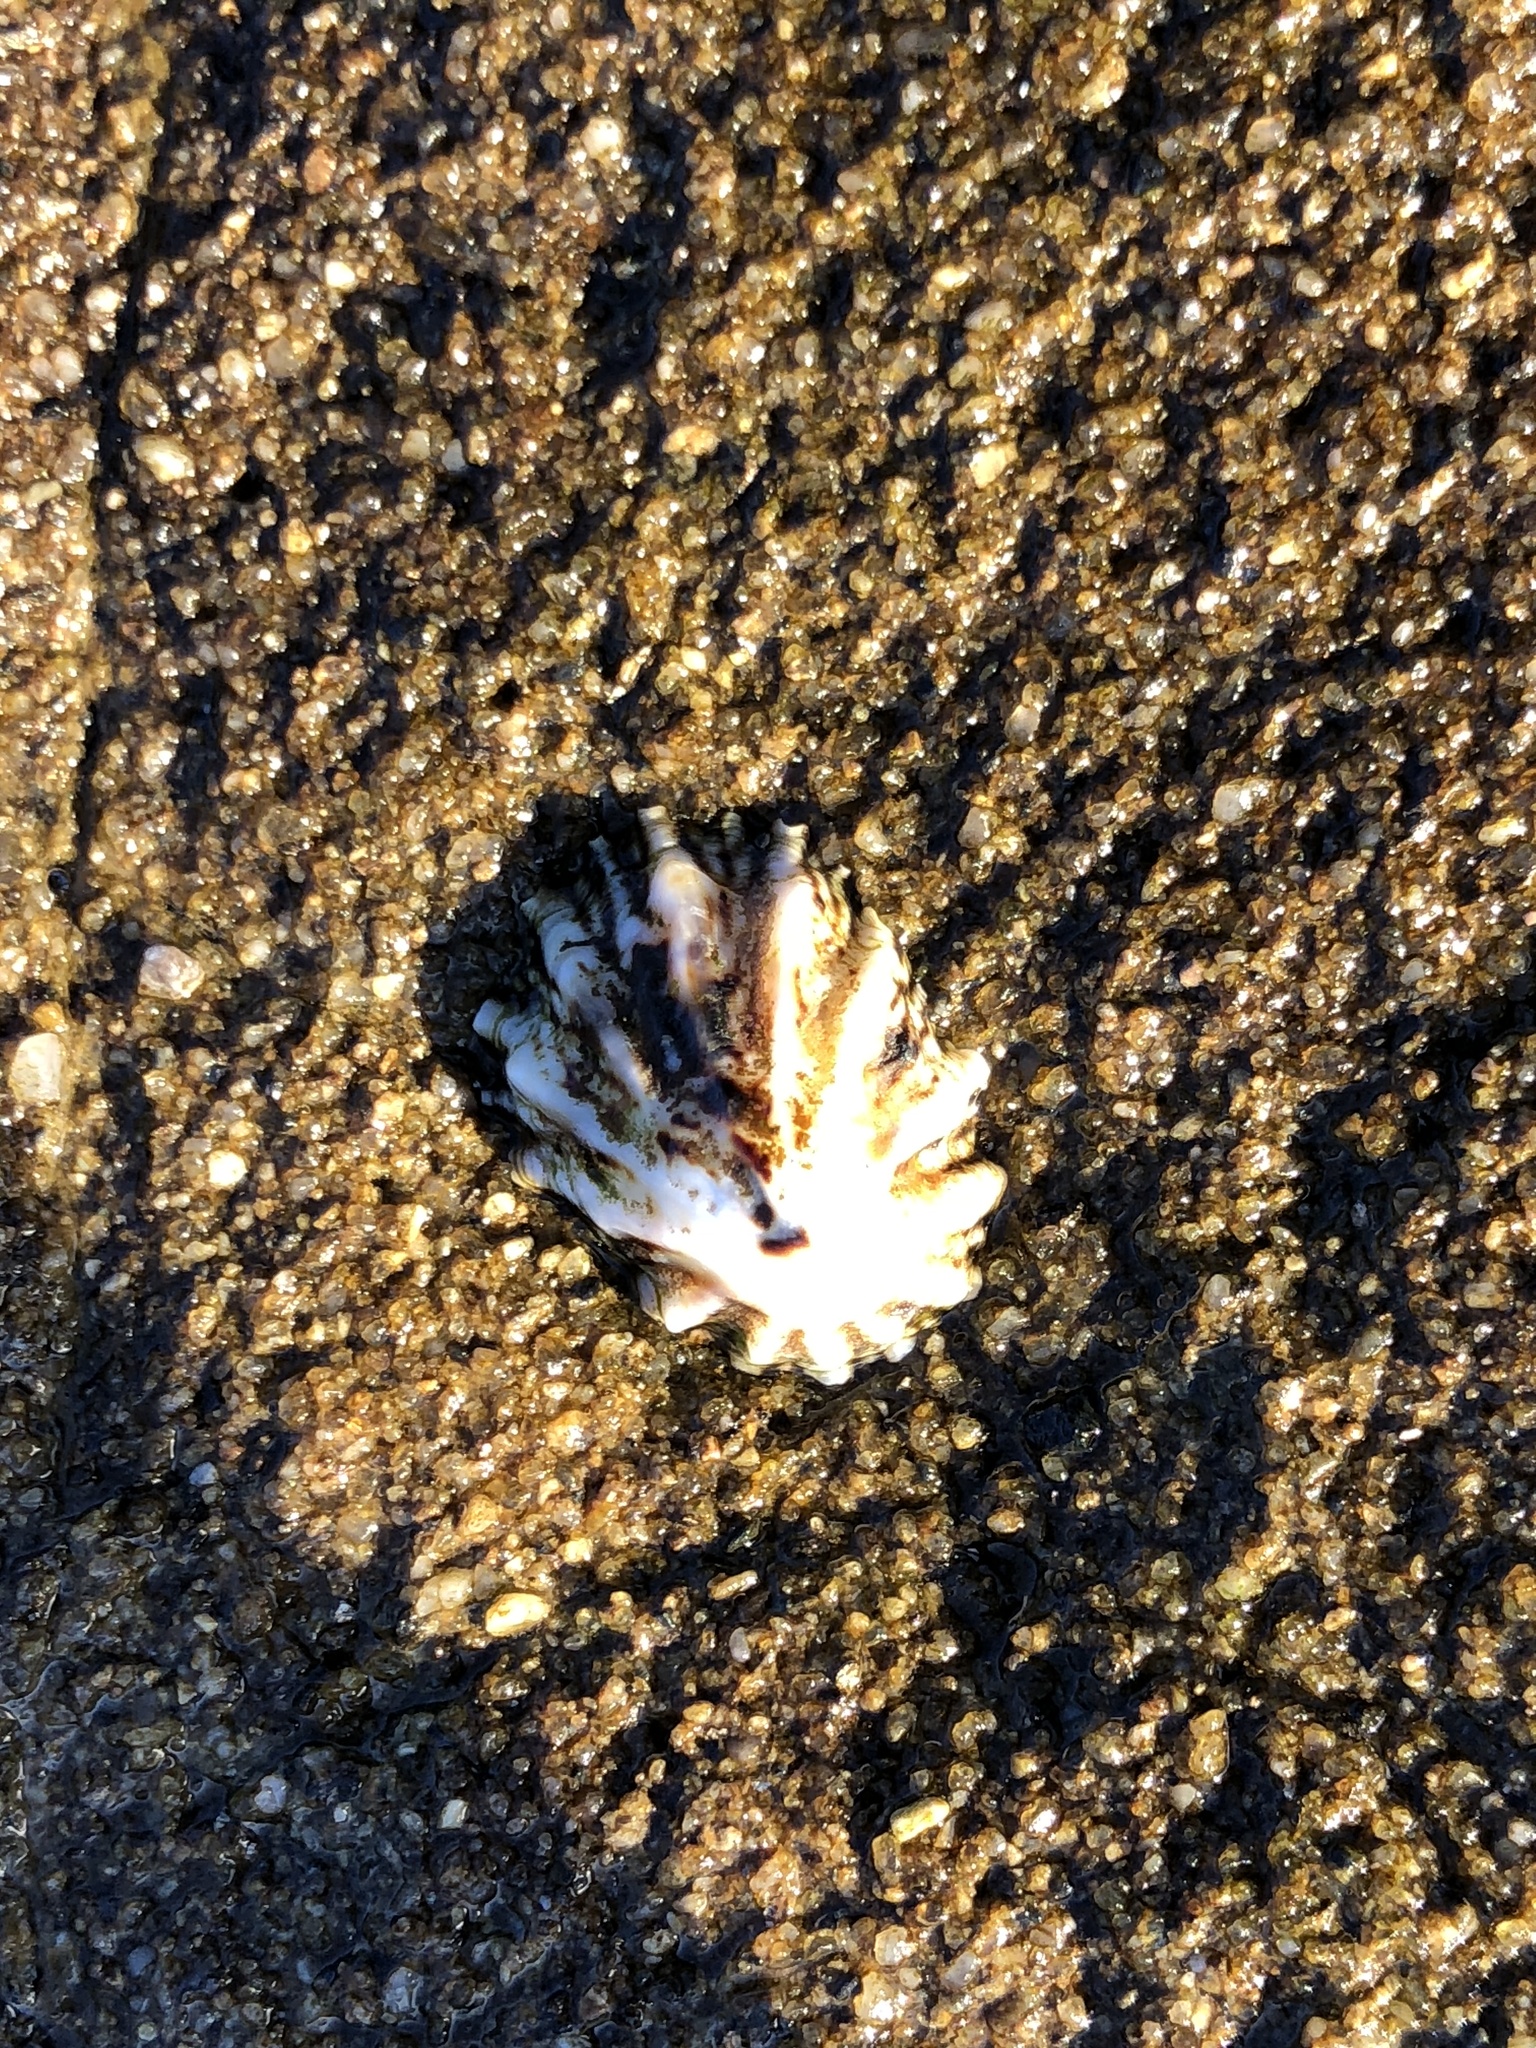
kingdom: Animalia
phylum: Mollusca
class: Gastropoda
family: Lottiidae
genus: Lottia
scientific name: Lottia scabra
